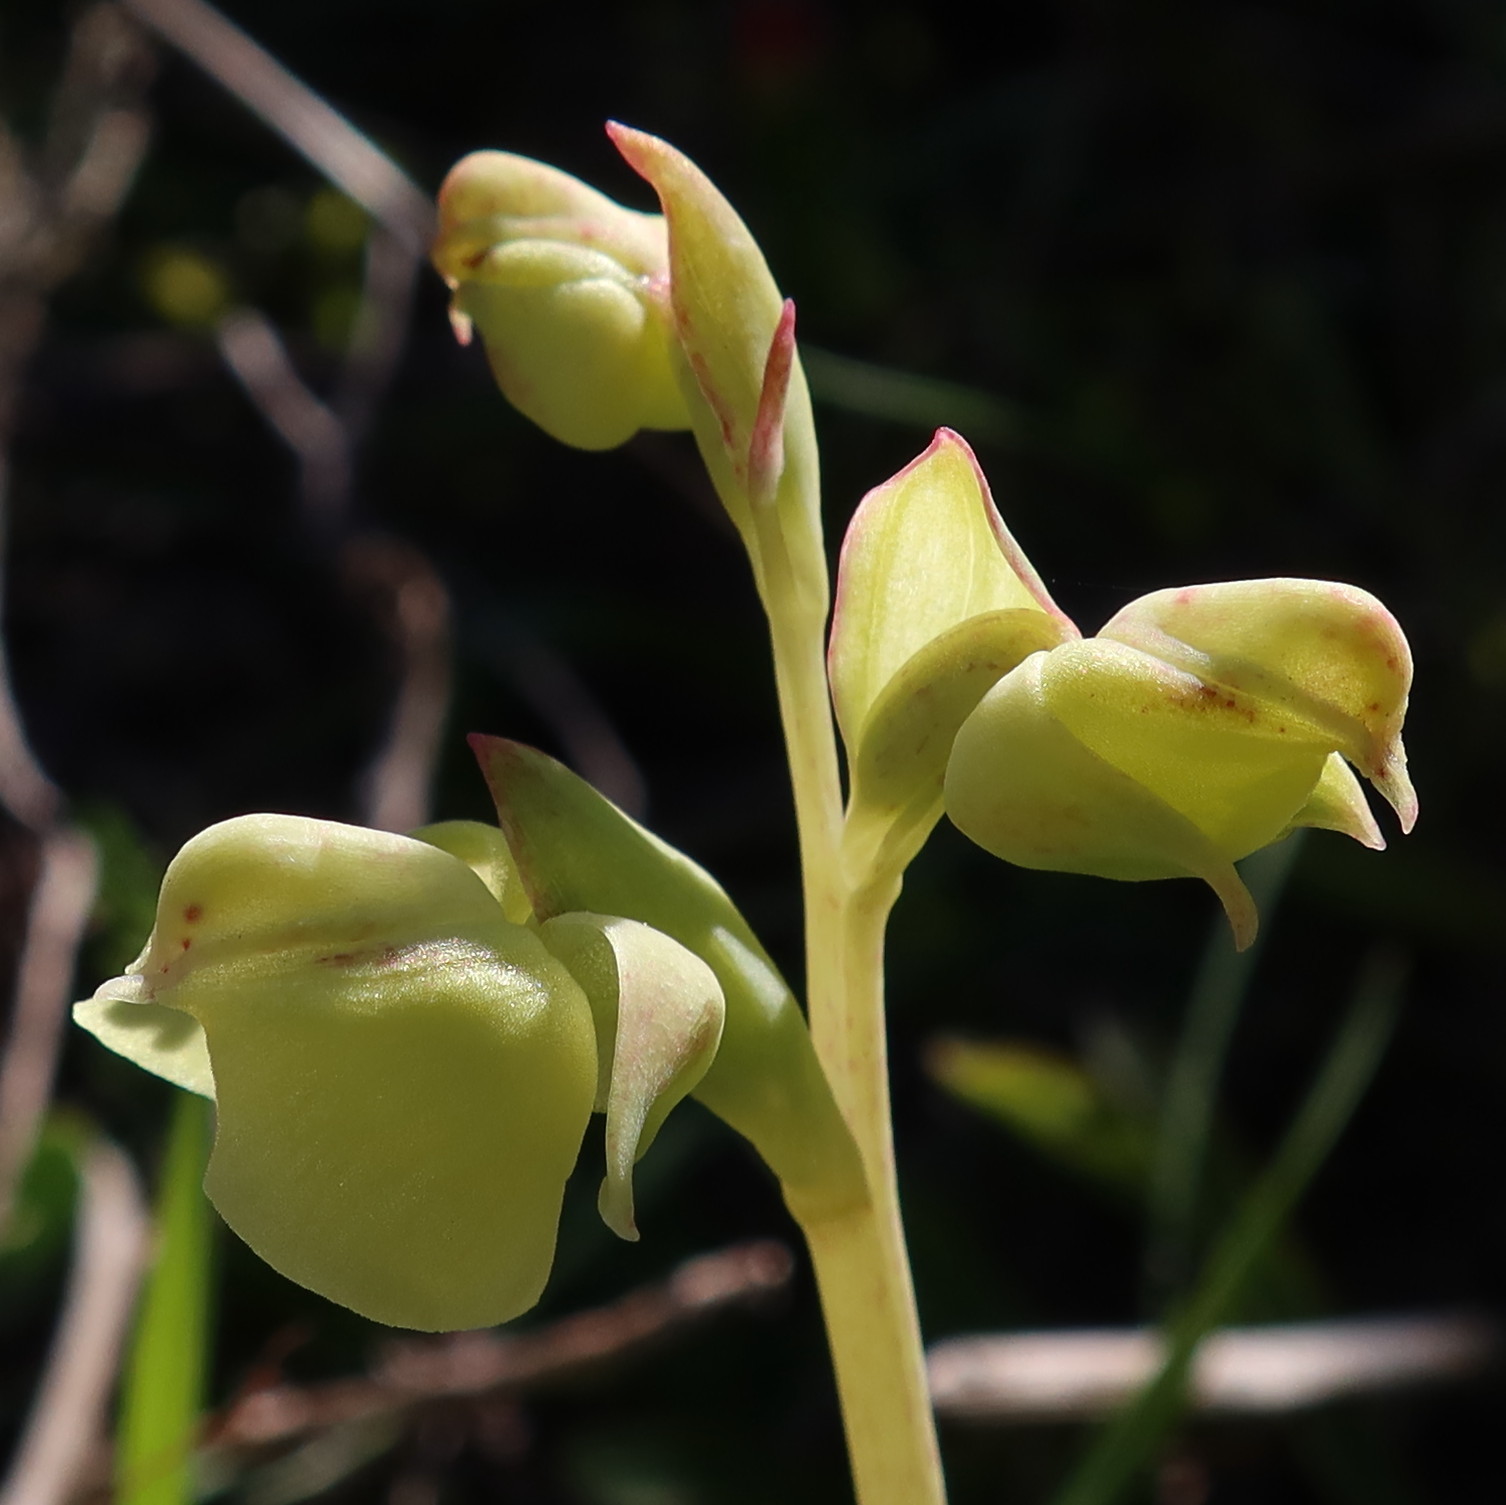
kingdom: Plantae
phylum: Tracheophyta
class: Liliopsida
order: Asparagales
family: Orchidaceae
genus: Pterygodium
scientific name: Pterygodium catholicum
